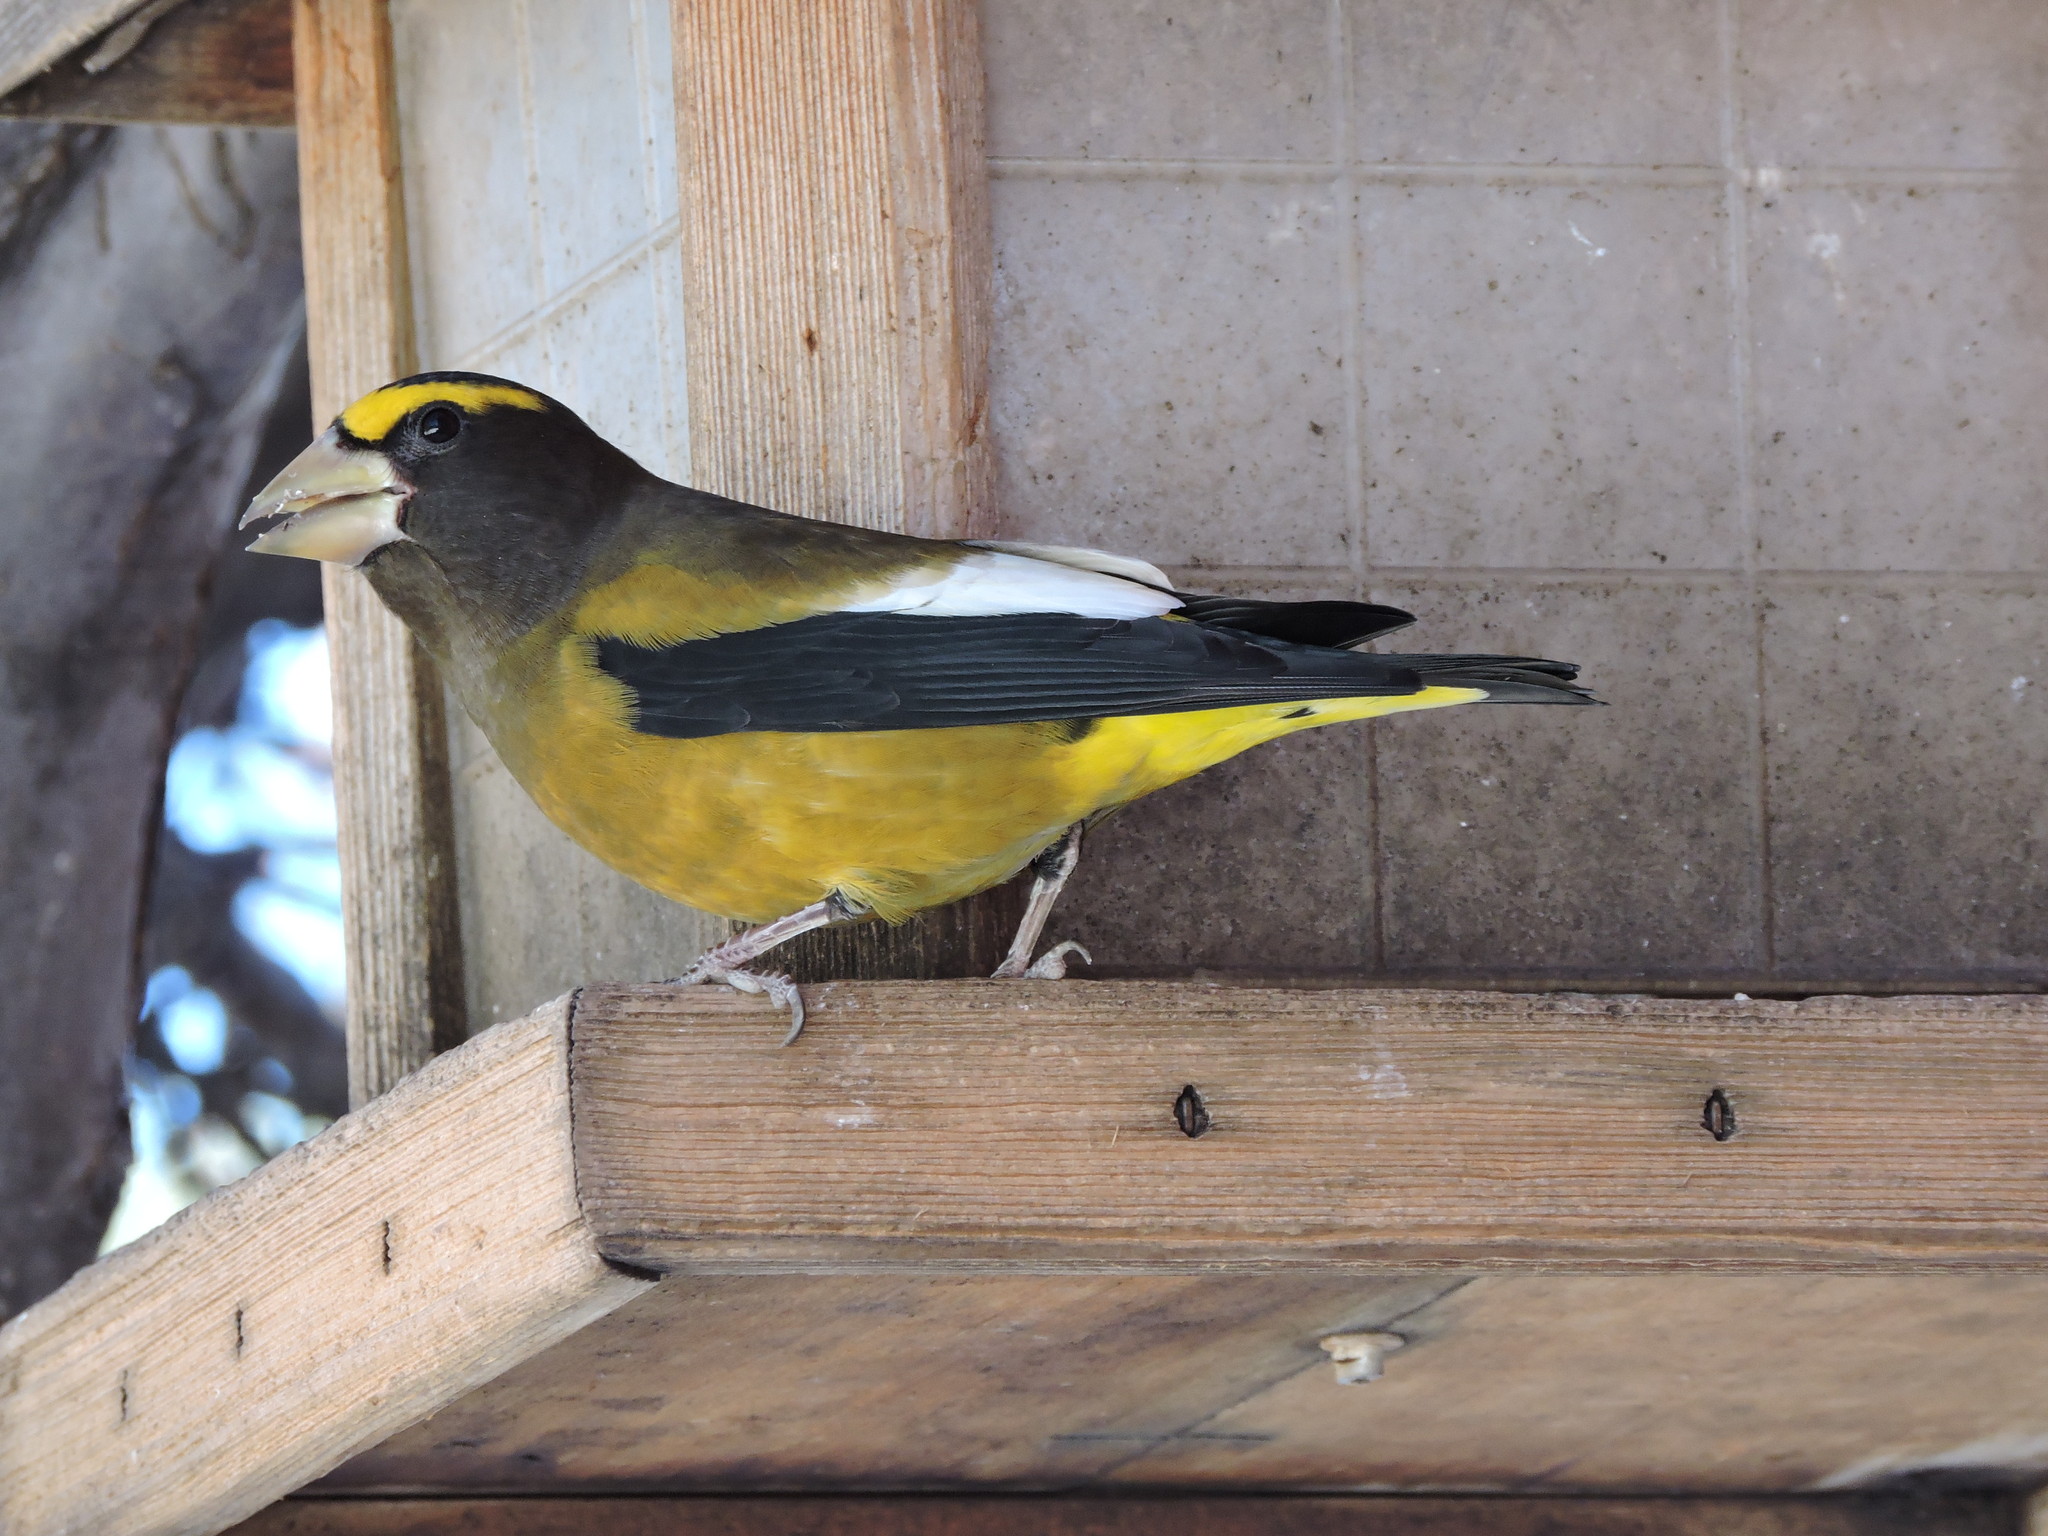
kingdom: Animalia
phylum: Chordata
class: Aves
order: Passeriformes
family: Fringillidae
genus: Hesperiphona
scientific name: Hesperiphona vespertina
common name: Evening grosbeak
